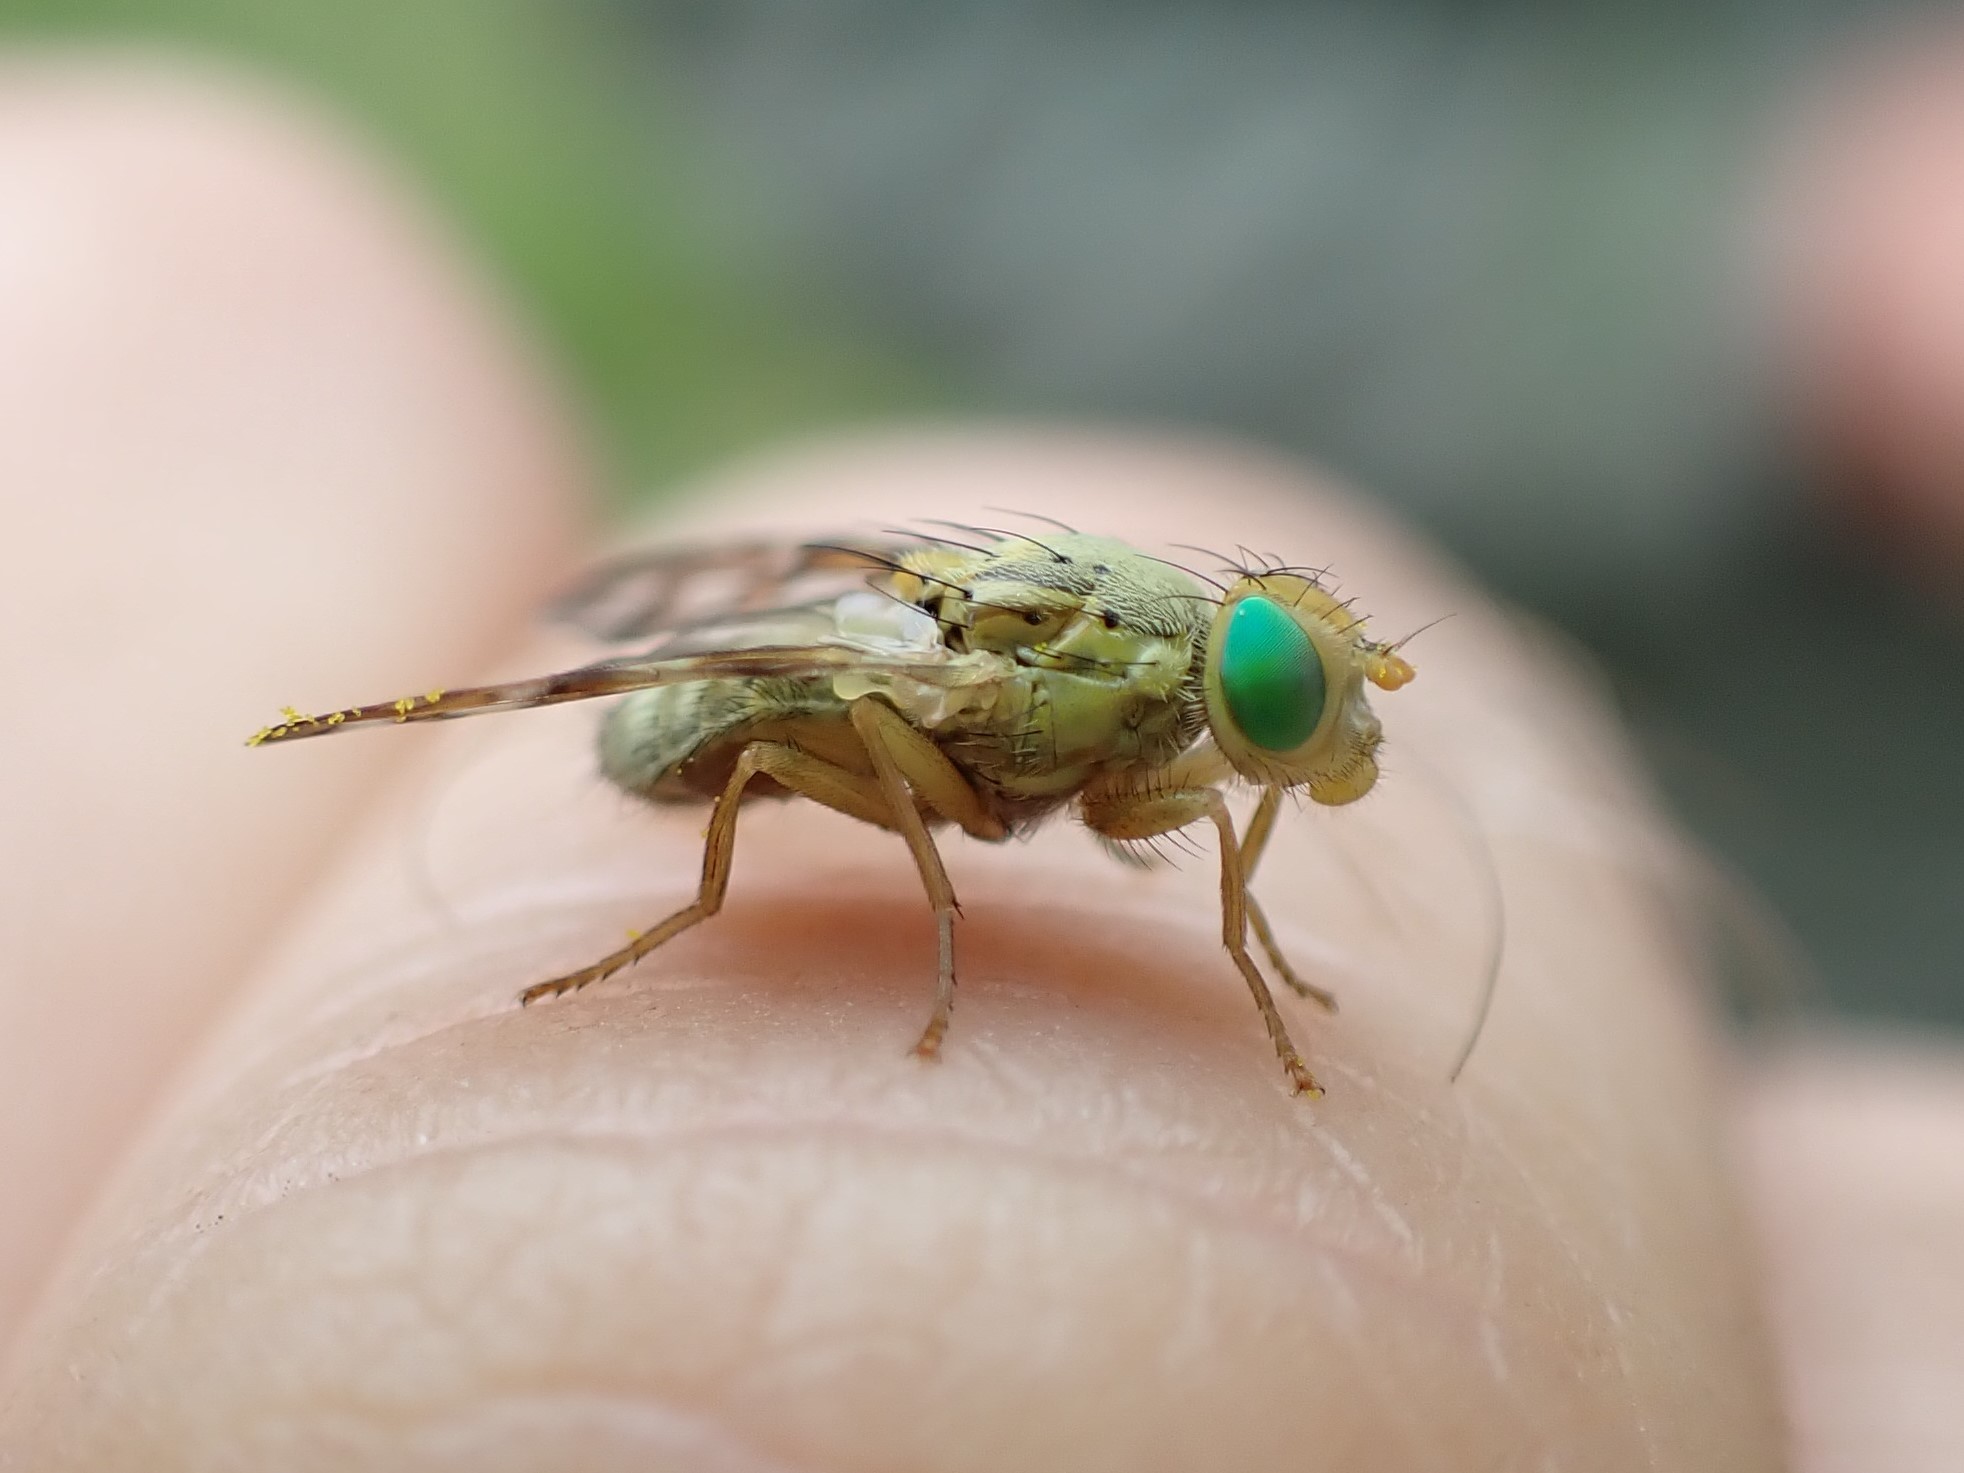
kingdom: Animalia
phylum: Arthropoda
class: Insecta
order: Diptera
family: Tephritidae
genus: Orellia
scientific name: Orellia falcata
